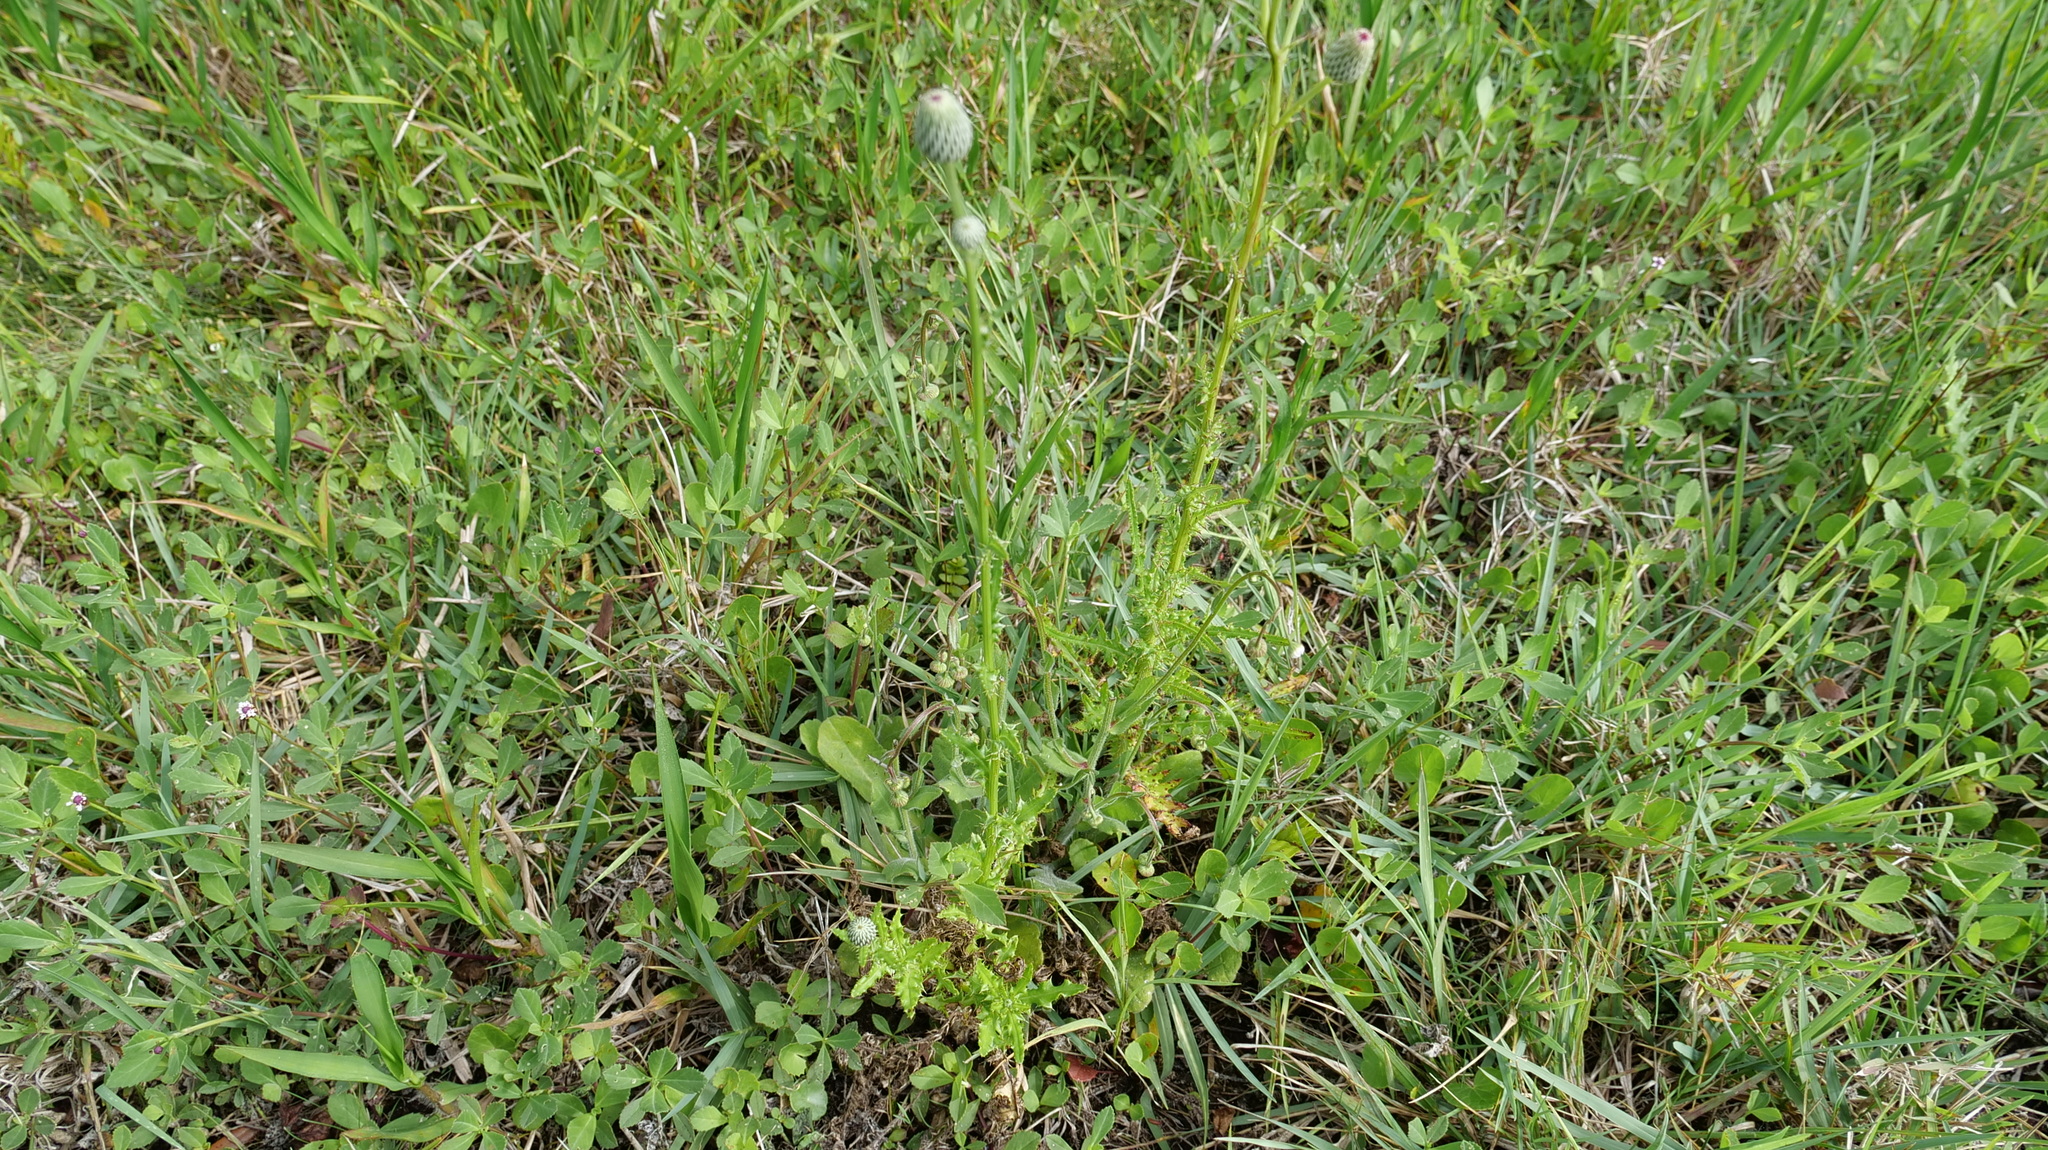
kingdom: Plantae
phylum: Tracheophyta
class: Magnoliopsida
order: Asterales
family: Asteraceae
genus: Cirsium
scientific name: Cirsium nuttalii
